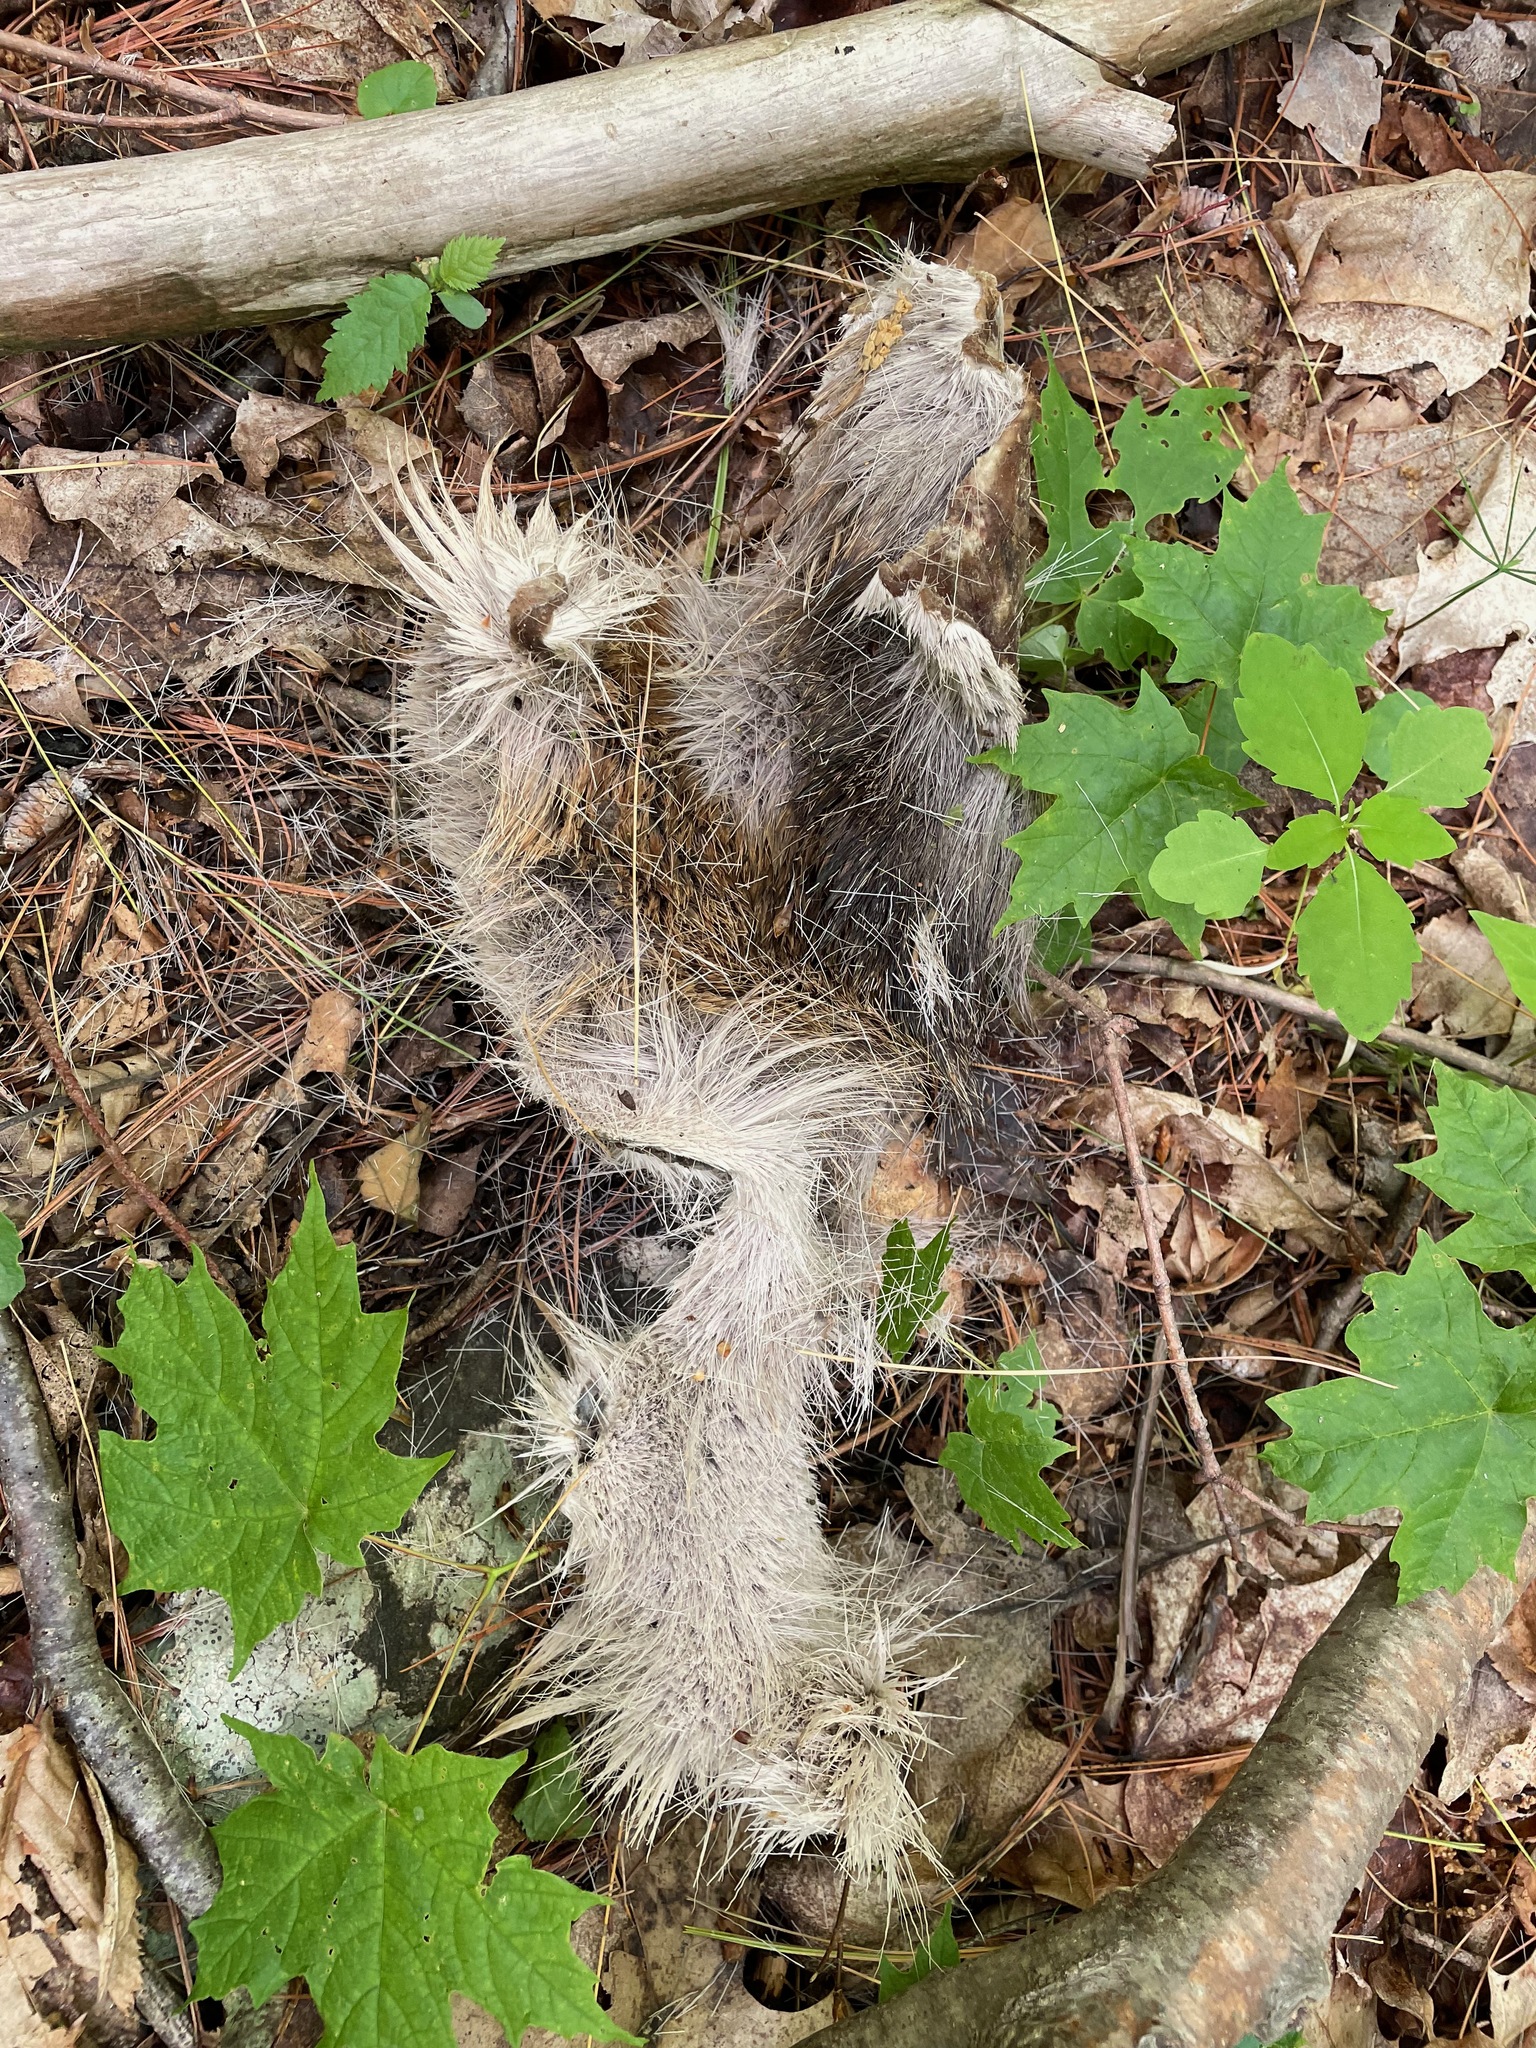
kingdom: Animalia
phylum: Chordata
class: Mammalia
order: Artiodactyla
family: Cervidae
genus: Odocoileus
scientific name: Odocoileus virginianus
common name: White-tailed deer
